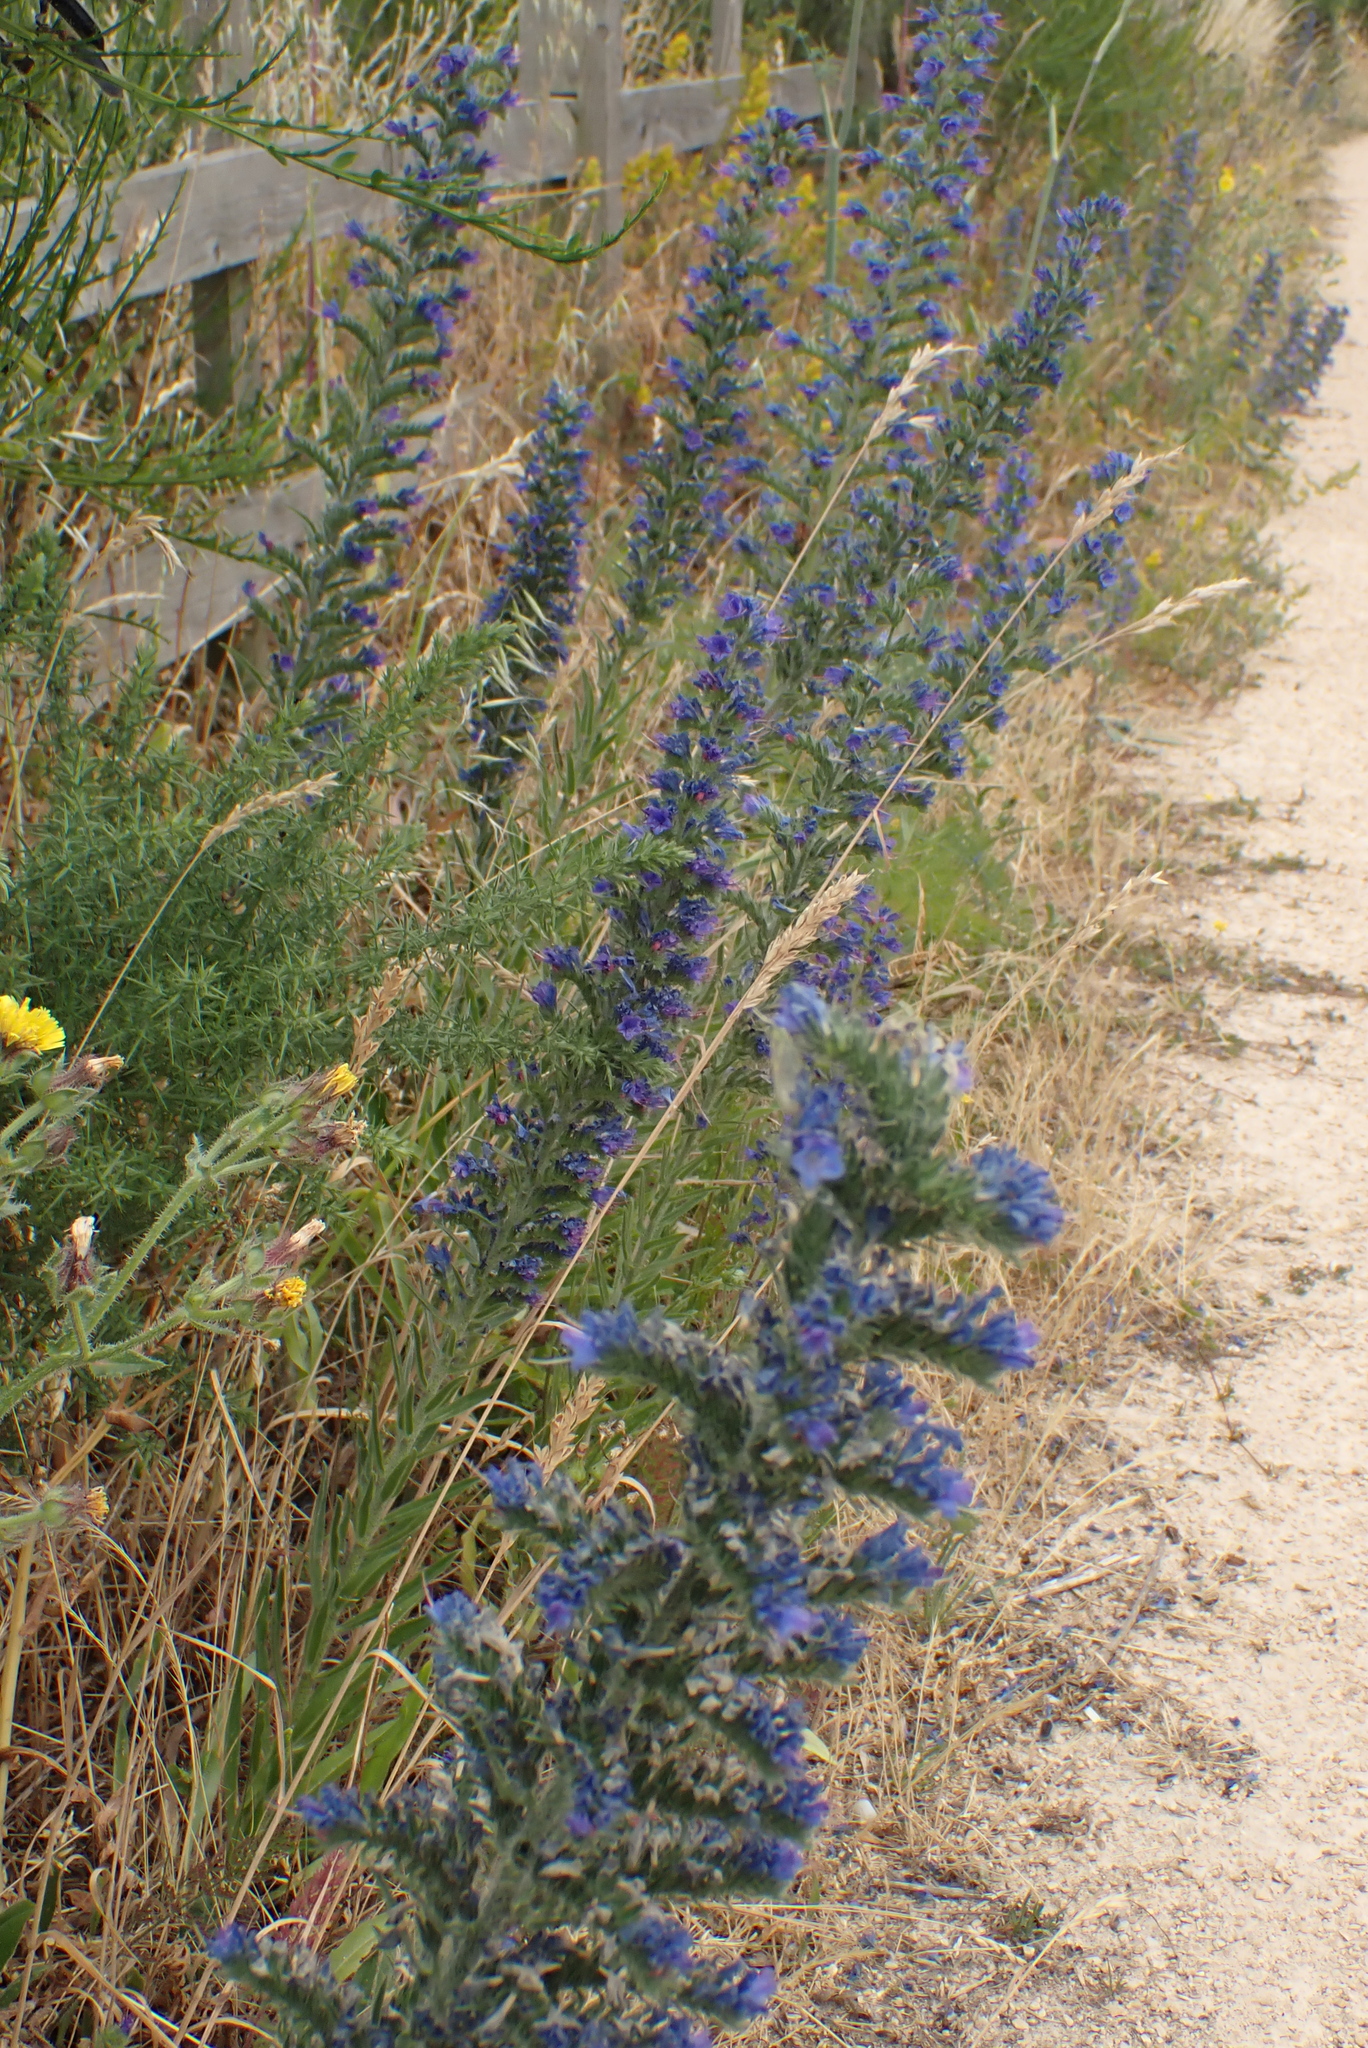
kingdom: Plantae
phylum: Tracheophyta
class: Magnoliopsida
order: Boraginales
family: Boraginaceae
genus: Echium
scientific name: Echium vulgare
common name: Common viper's bugloss
